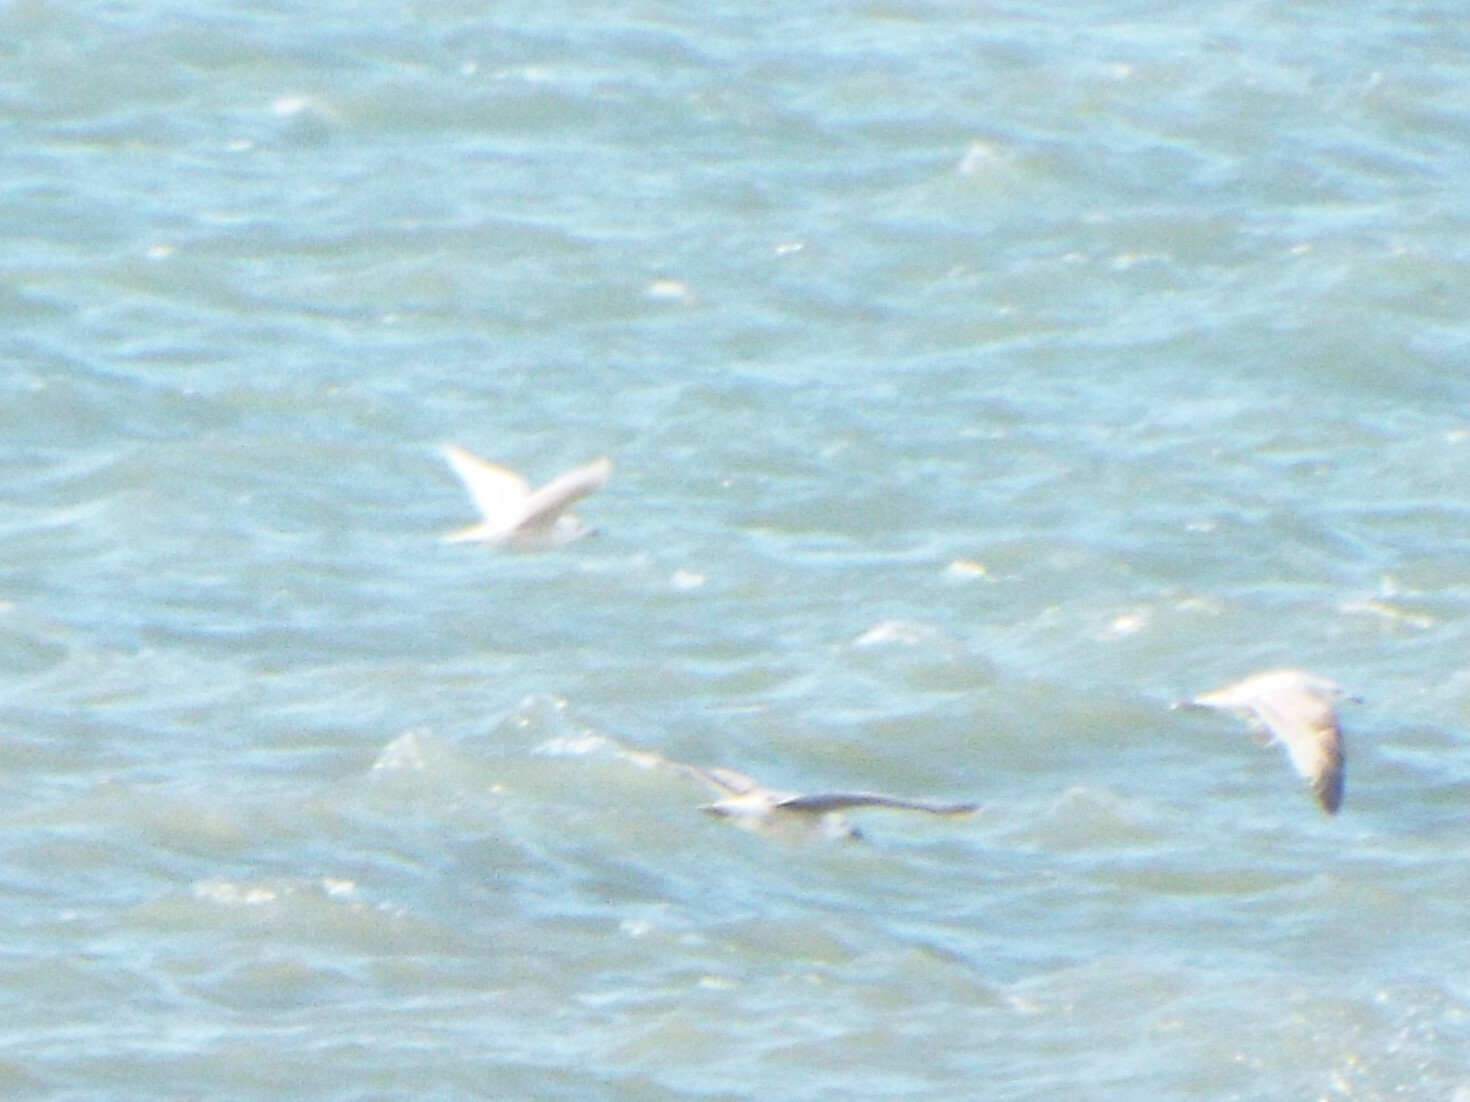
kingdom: Animalia
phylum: Chordata
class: Aves
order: Charadriiformes
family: Laridae
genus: Larus
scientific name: Larus glaucoides
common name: Iceland gull
